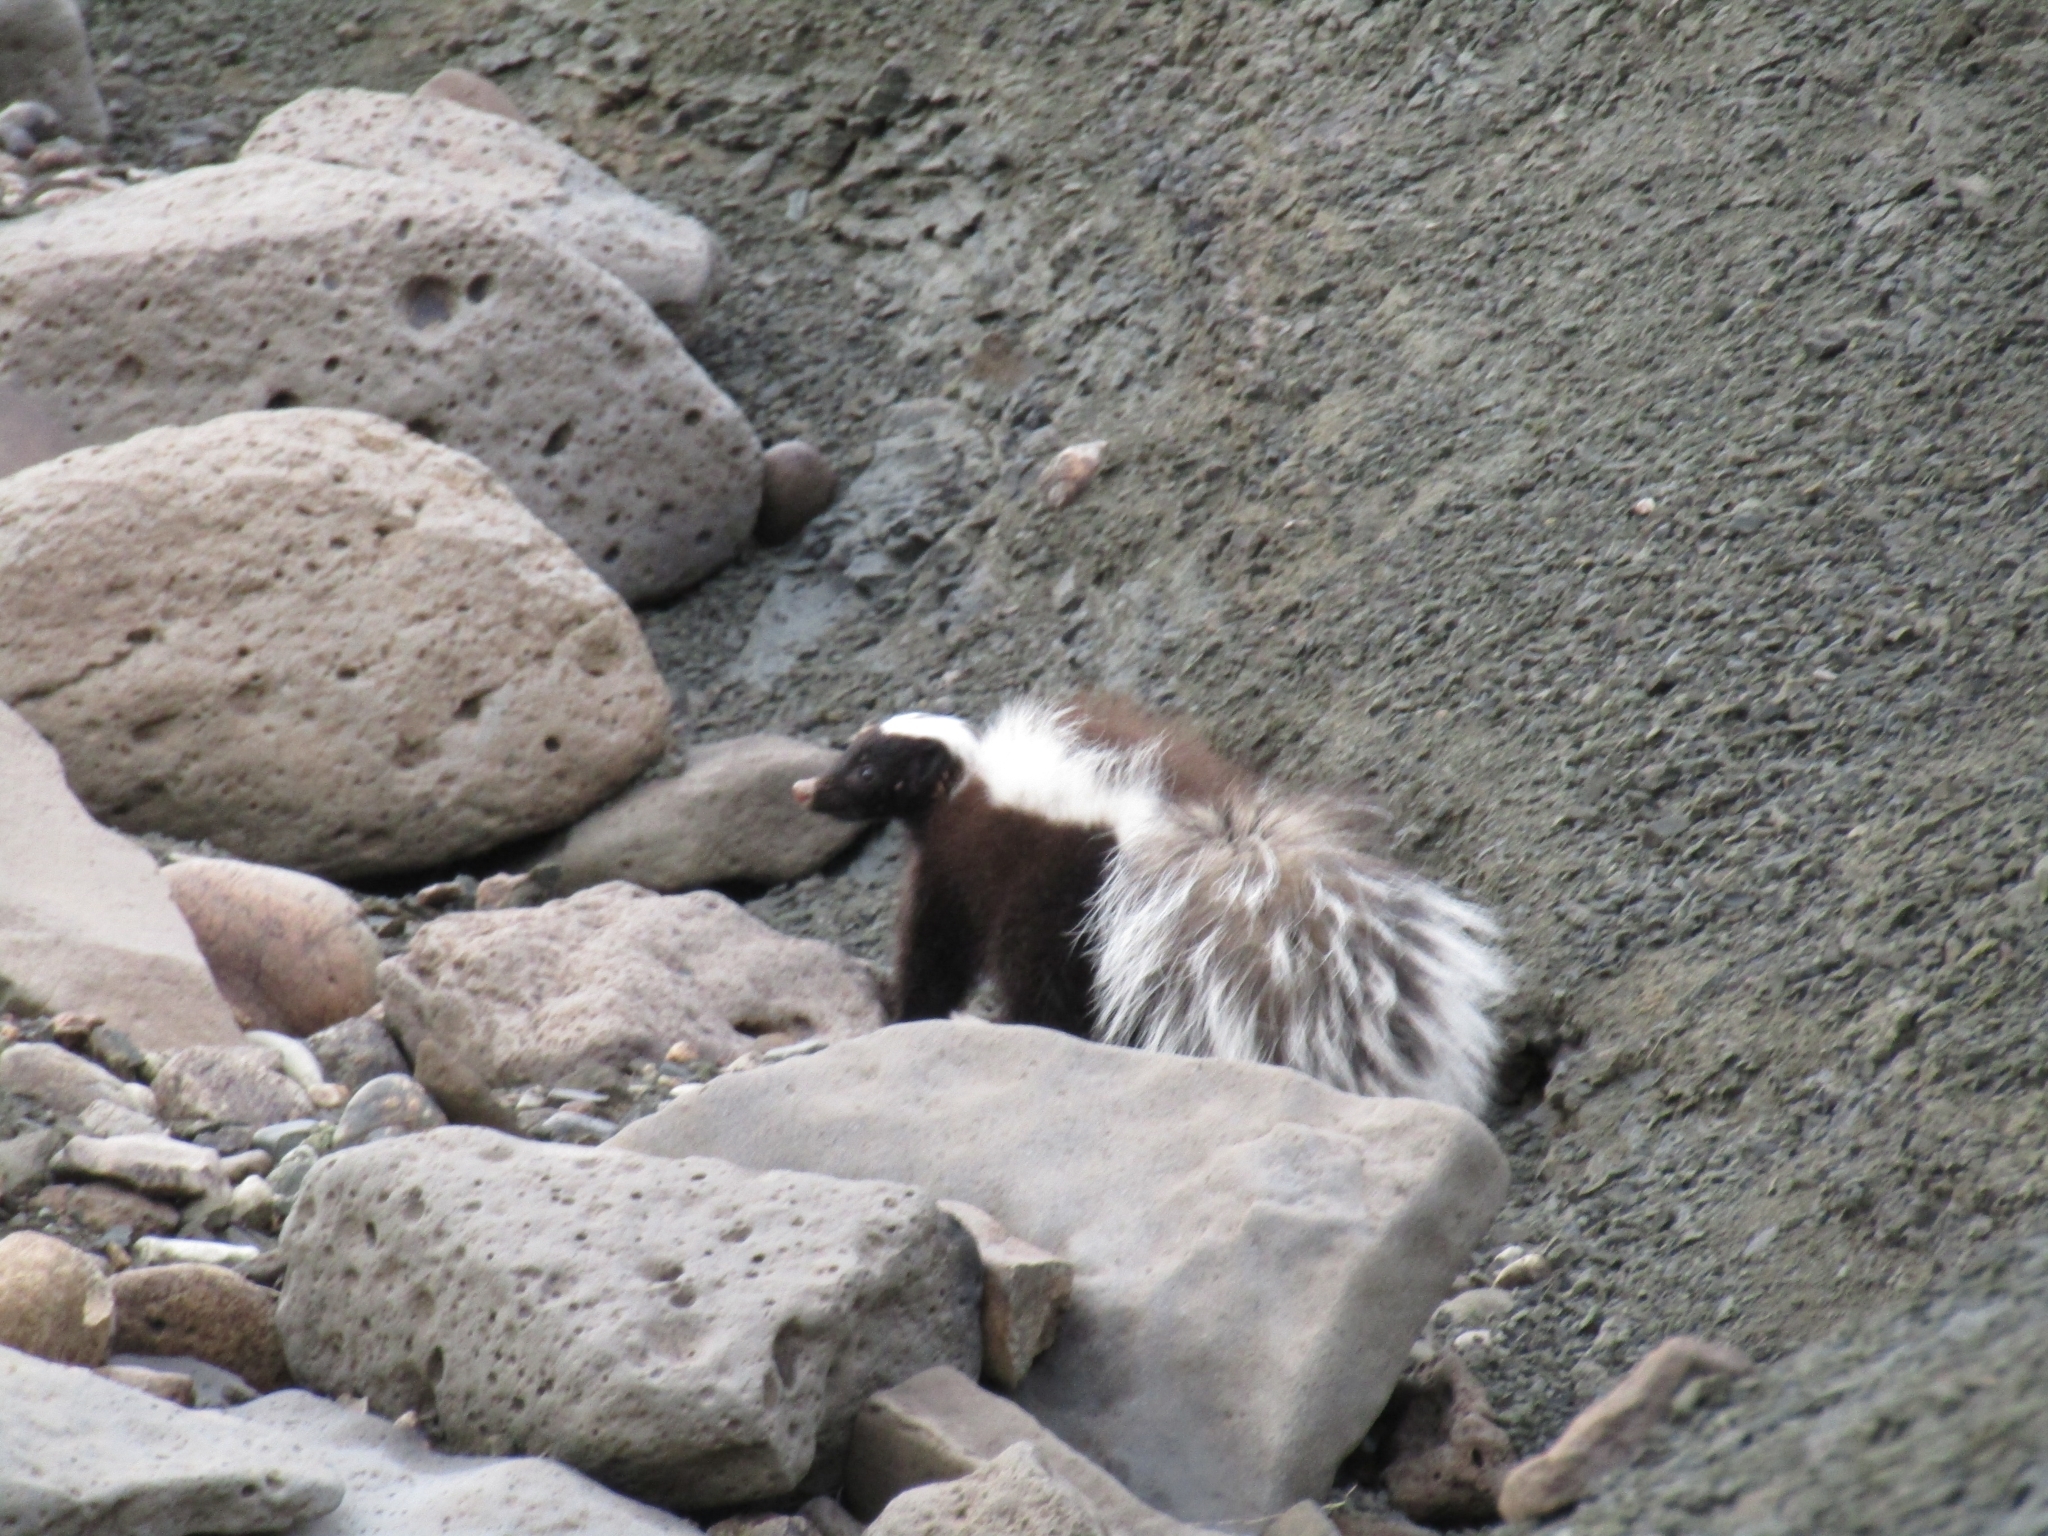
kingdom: Animalia
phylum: Chordata
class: Mammalia
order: Carnivora
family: Mephitidae
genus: Conepatus
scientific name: Conepatus chinga
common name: Molina's hog-nosed skunk
